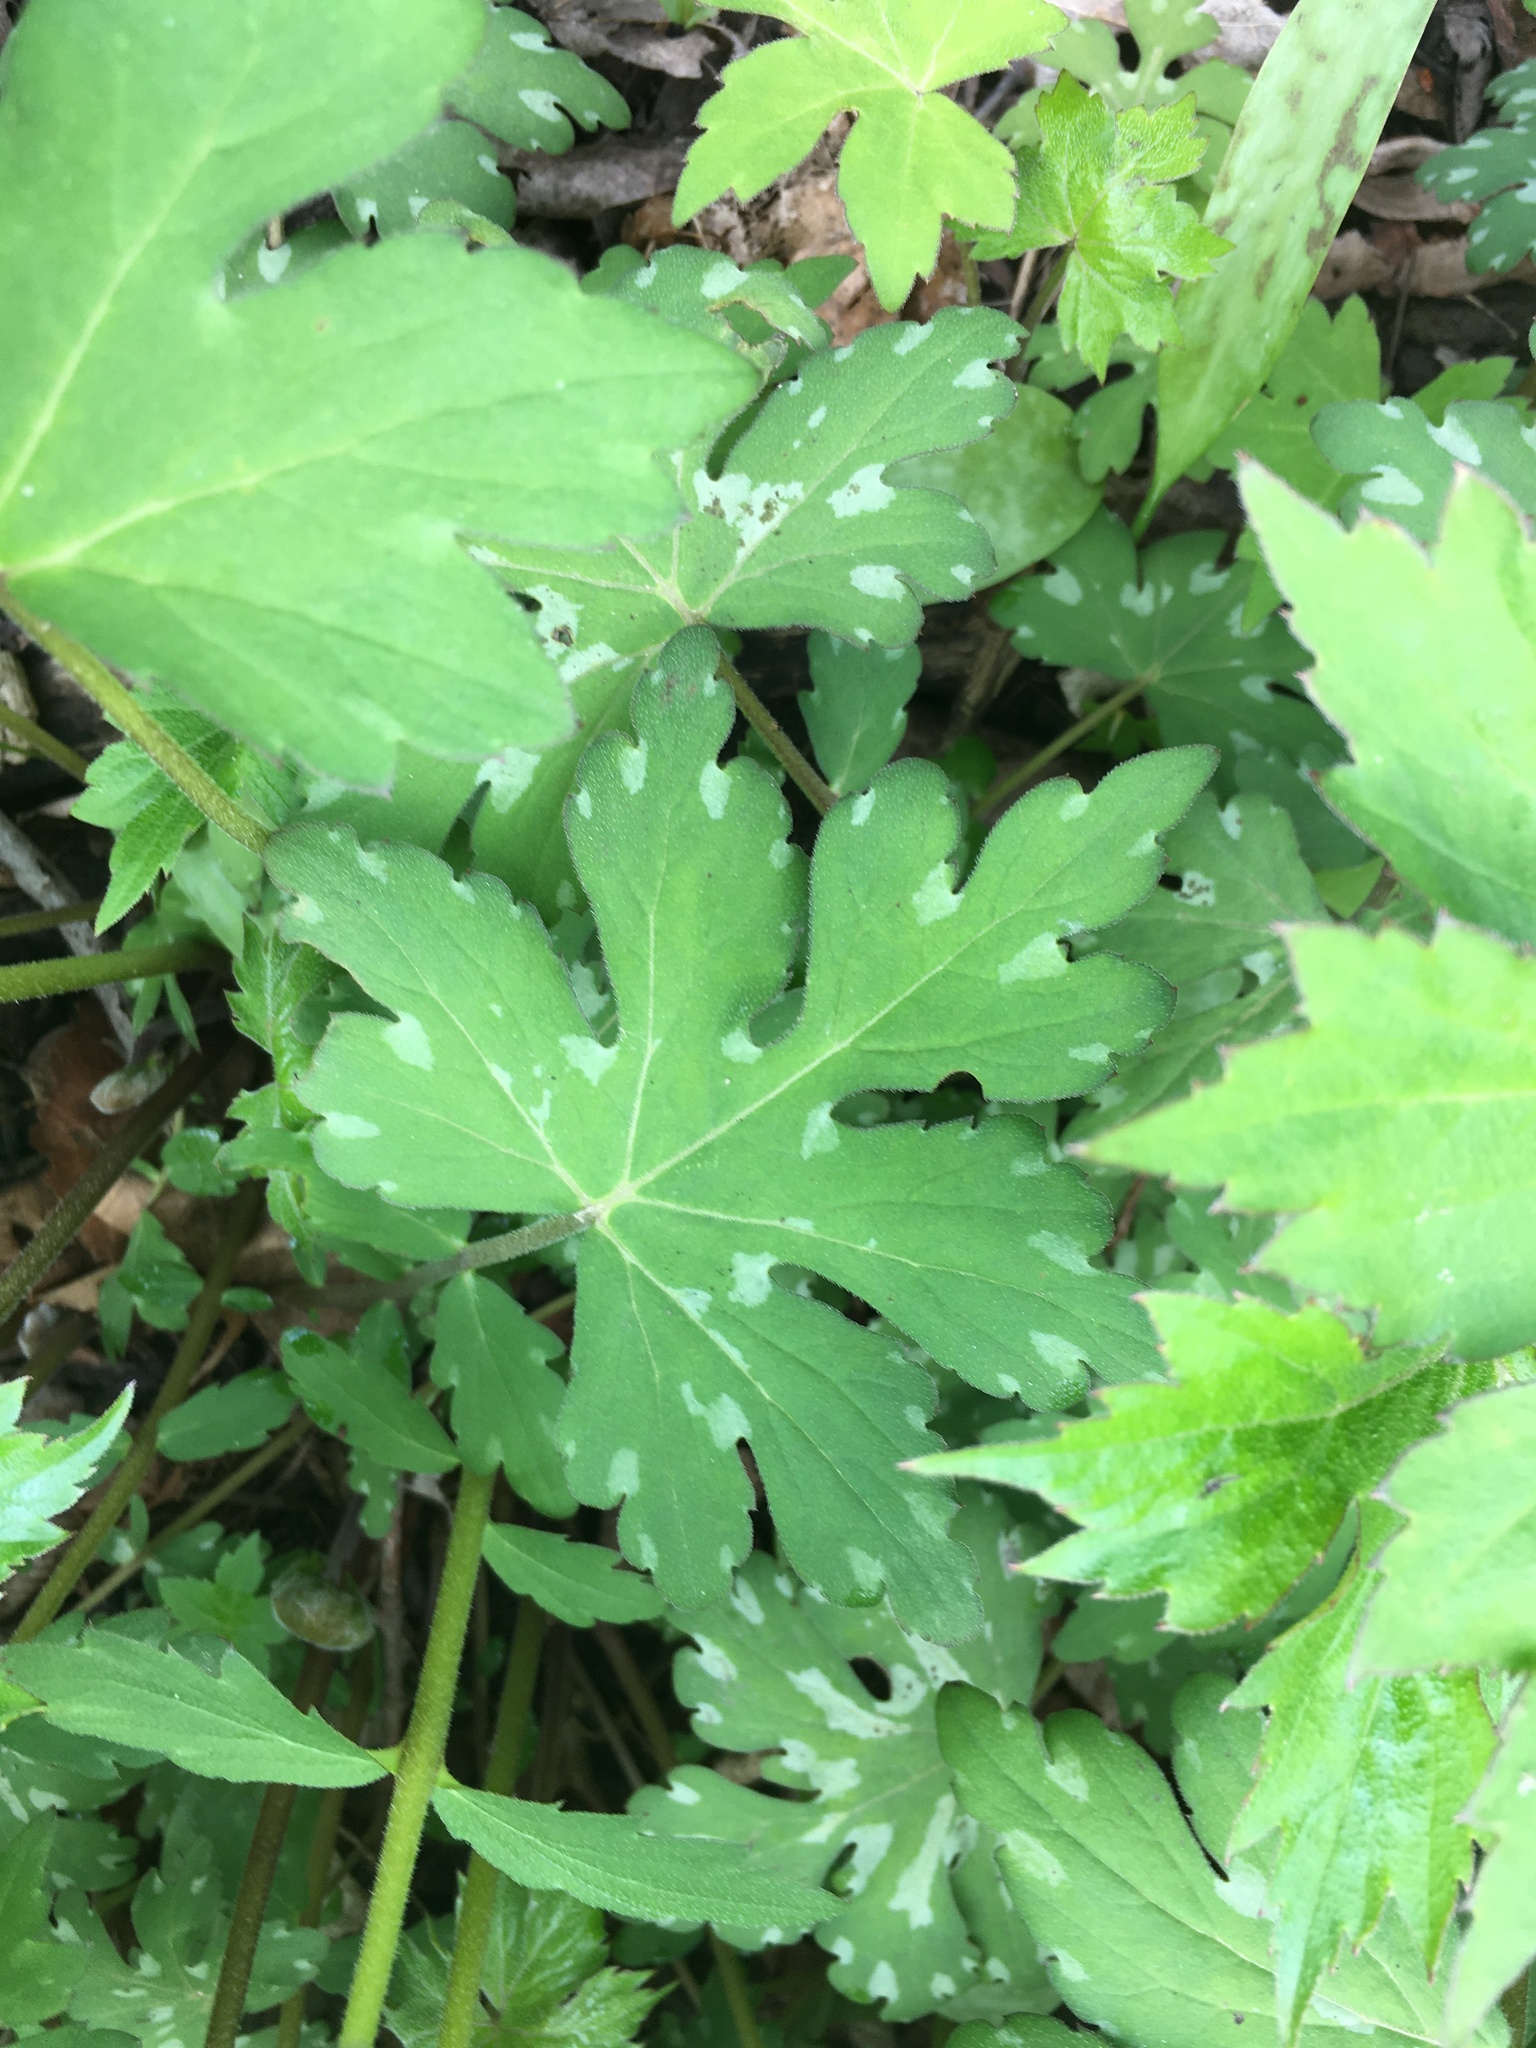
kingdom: Plantae
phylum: Tracheophyta
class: Magnoliopsida
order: Boraginales
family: Hydrophyllaceae
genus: Hydrophyllum
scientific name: Hydrophyllum canadense
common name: Canada waterleaf
